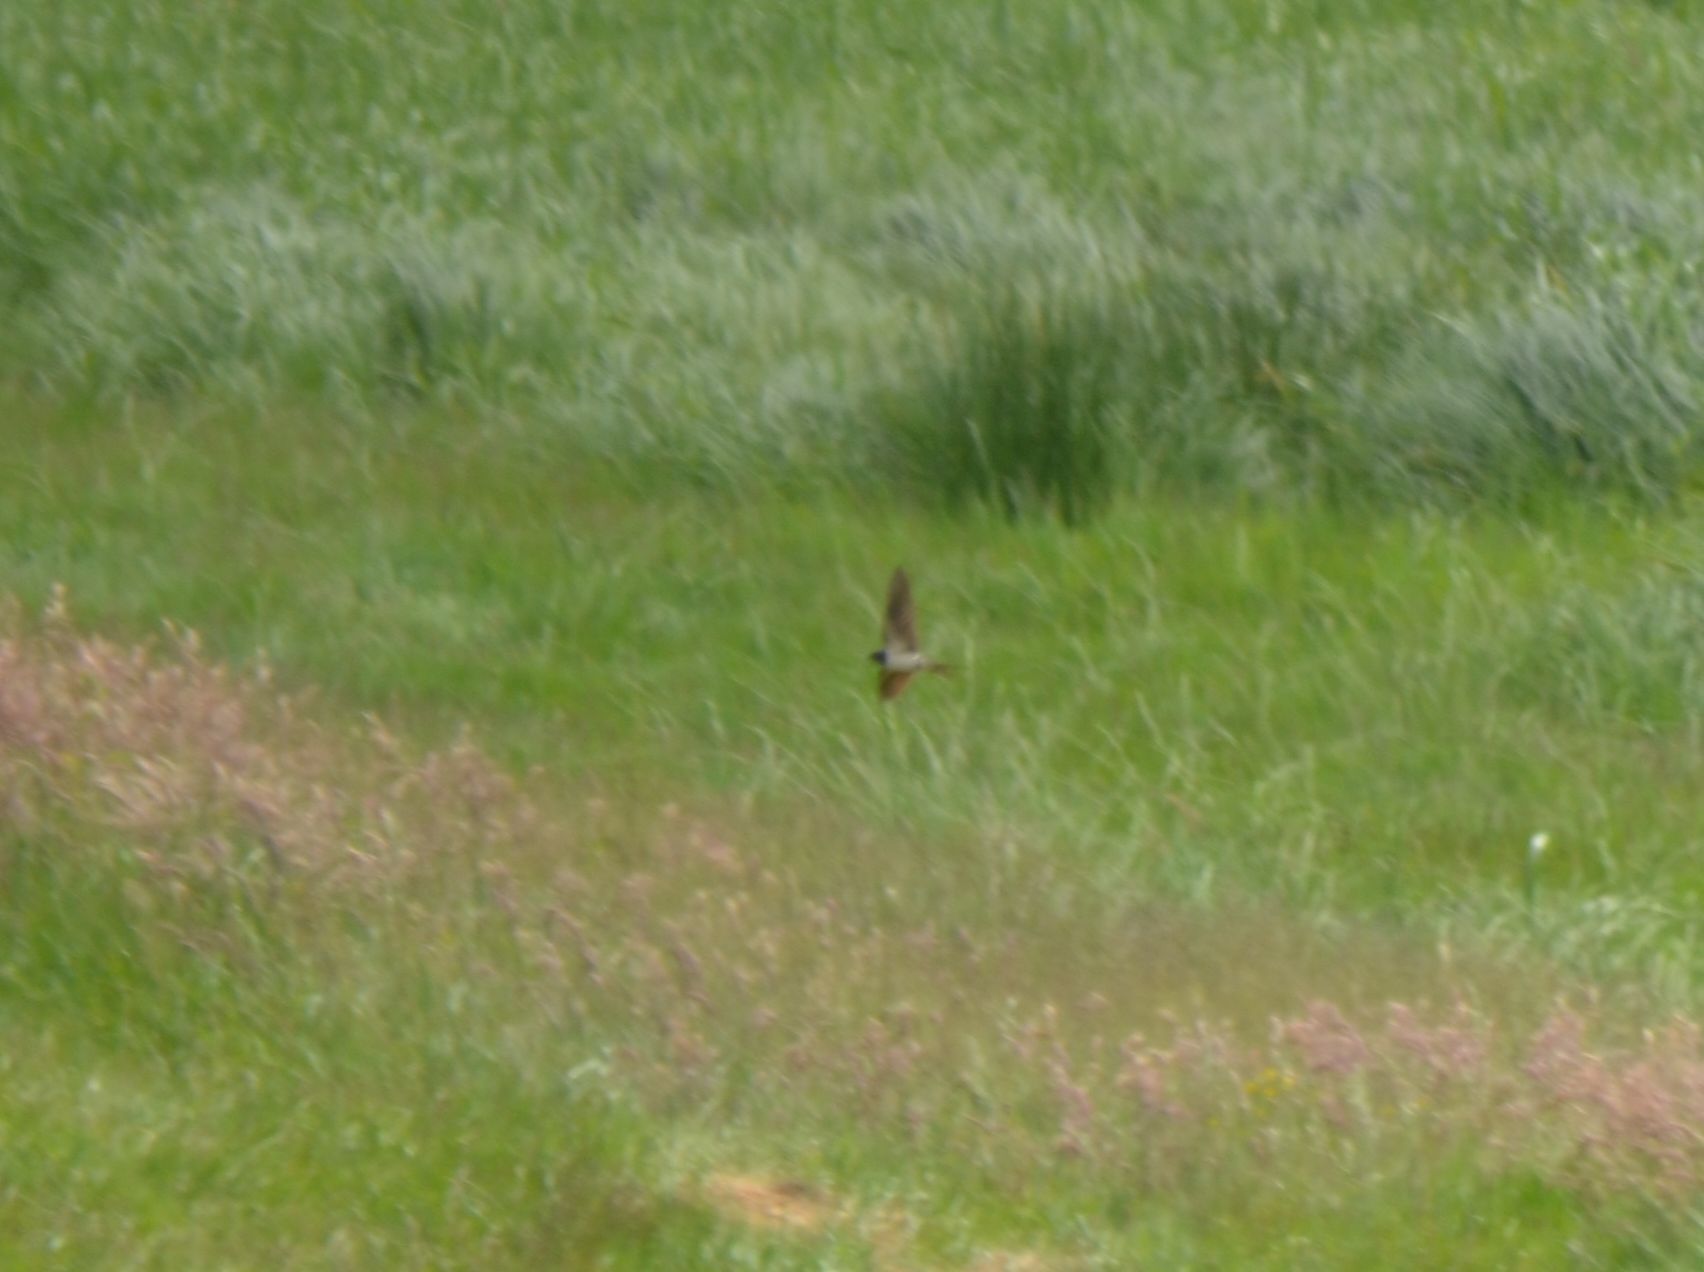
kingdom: Animalia
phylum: Chordata
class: Aves
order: Passeriformes
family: Hirundinidae
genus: Hirundo
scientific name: Hirundo rustica
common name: Barn swallow
